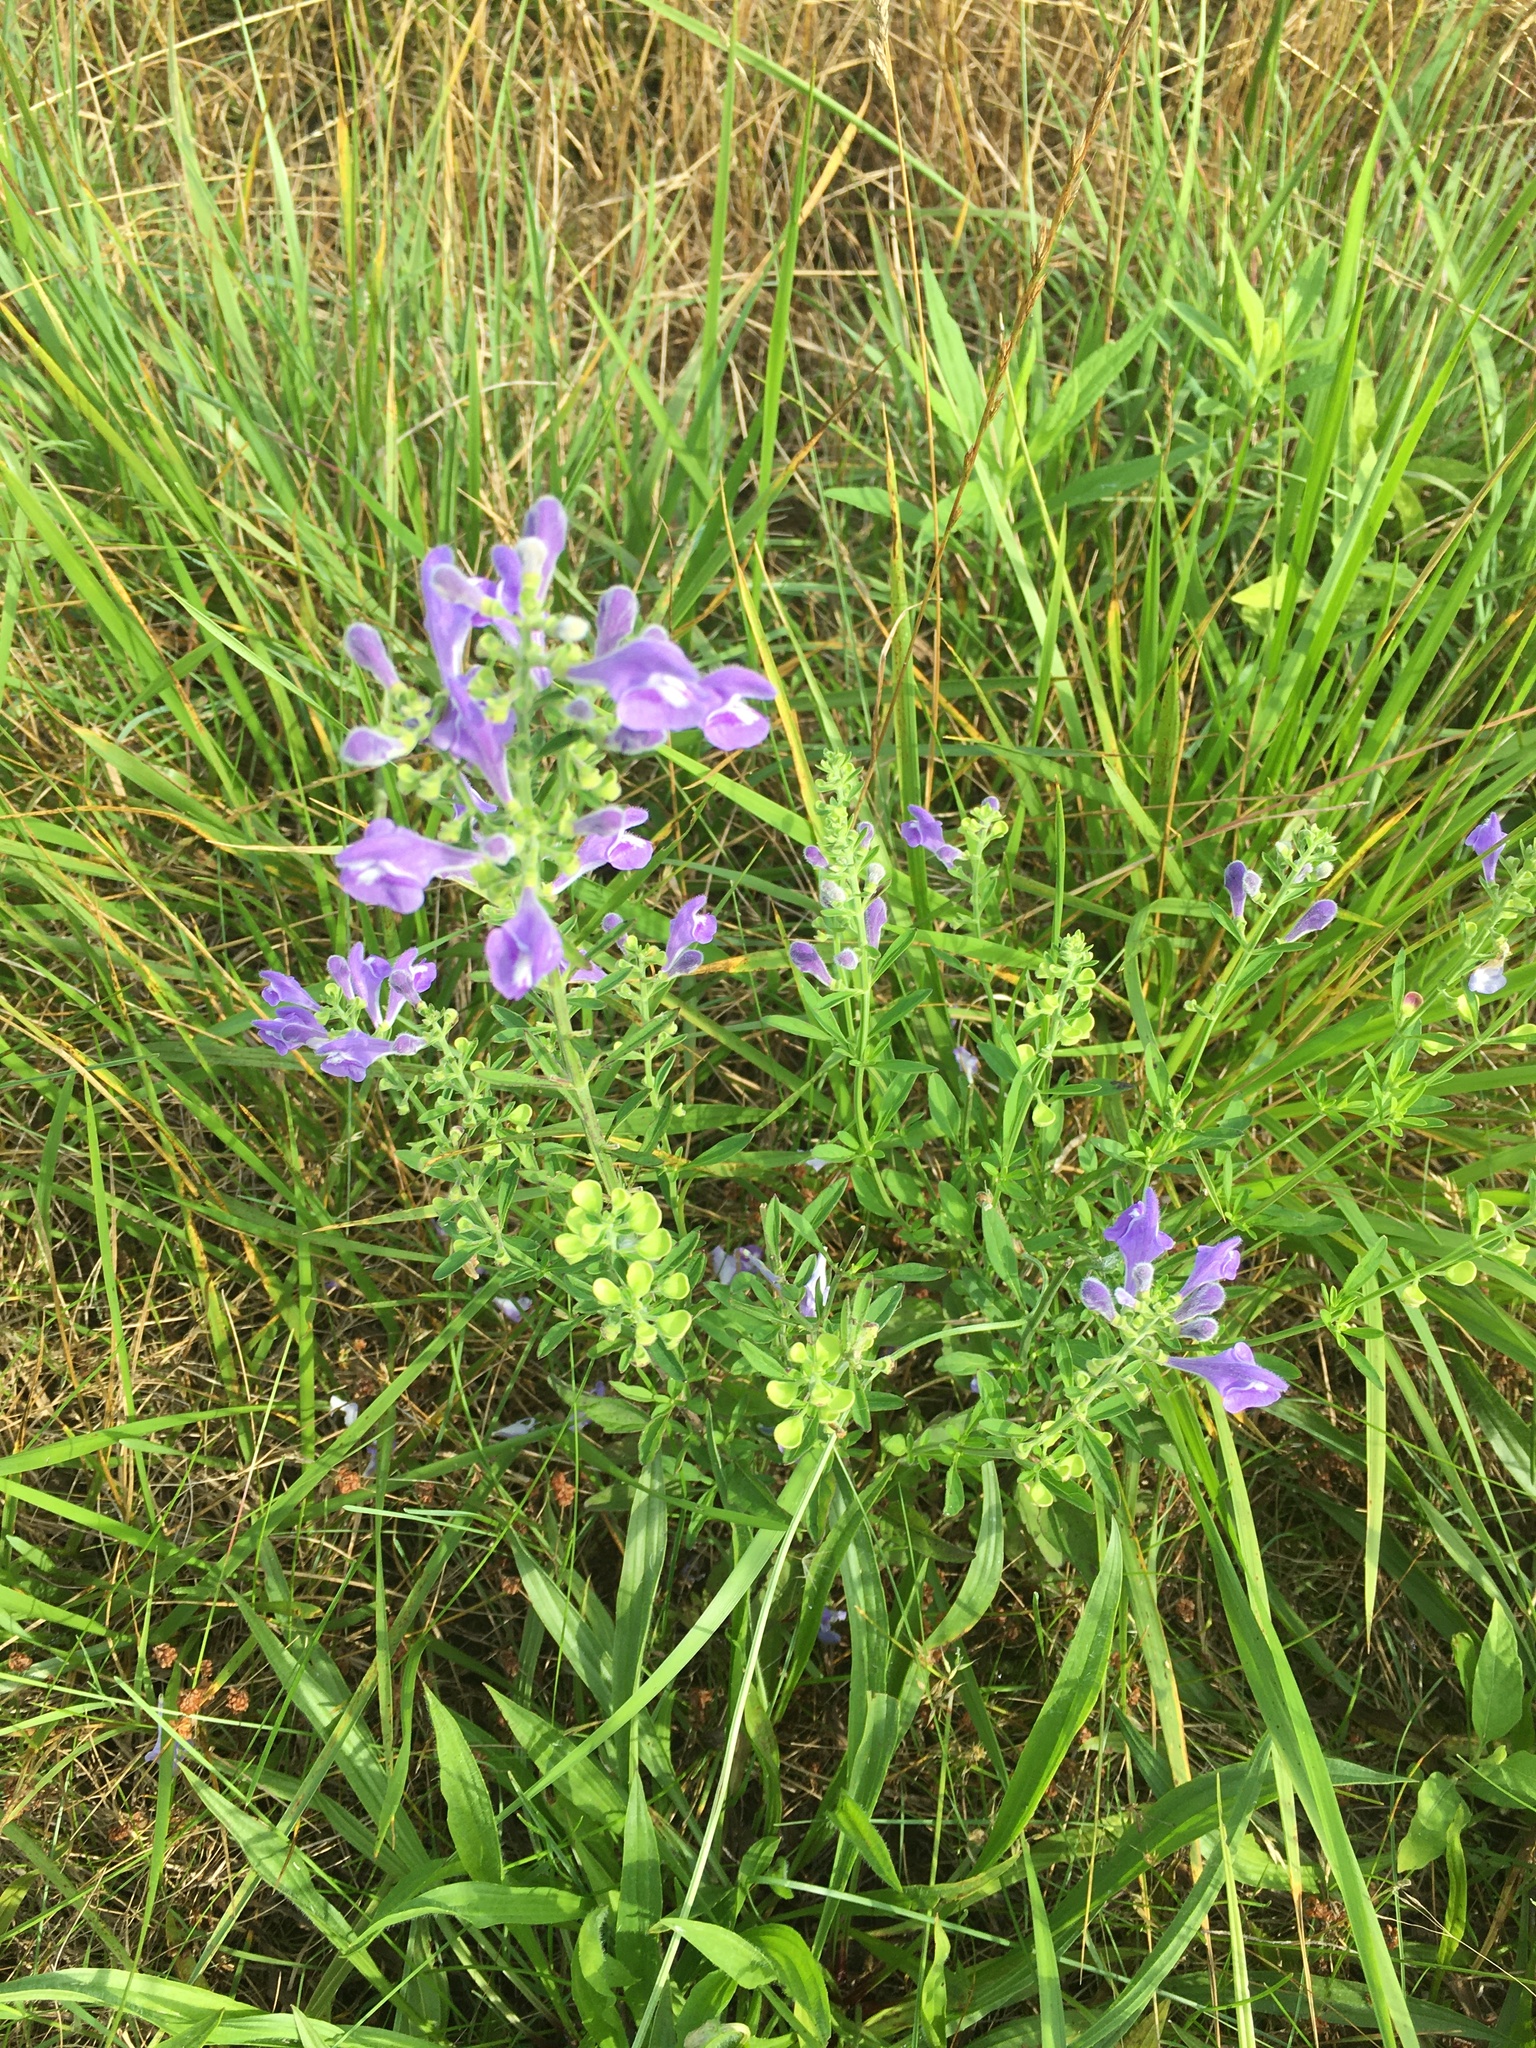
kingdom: Plantae
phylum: Tracheophyta
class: Magnoliopsida
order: Lamiales
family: Lamiaceae
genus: Scutellaria
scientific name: Scutellaria integrifolia
